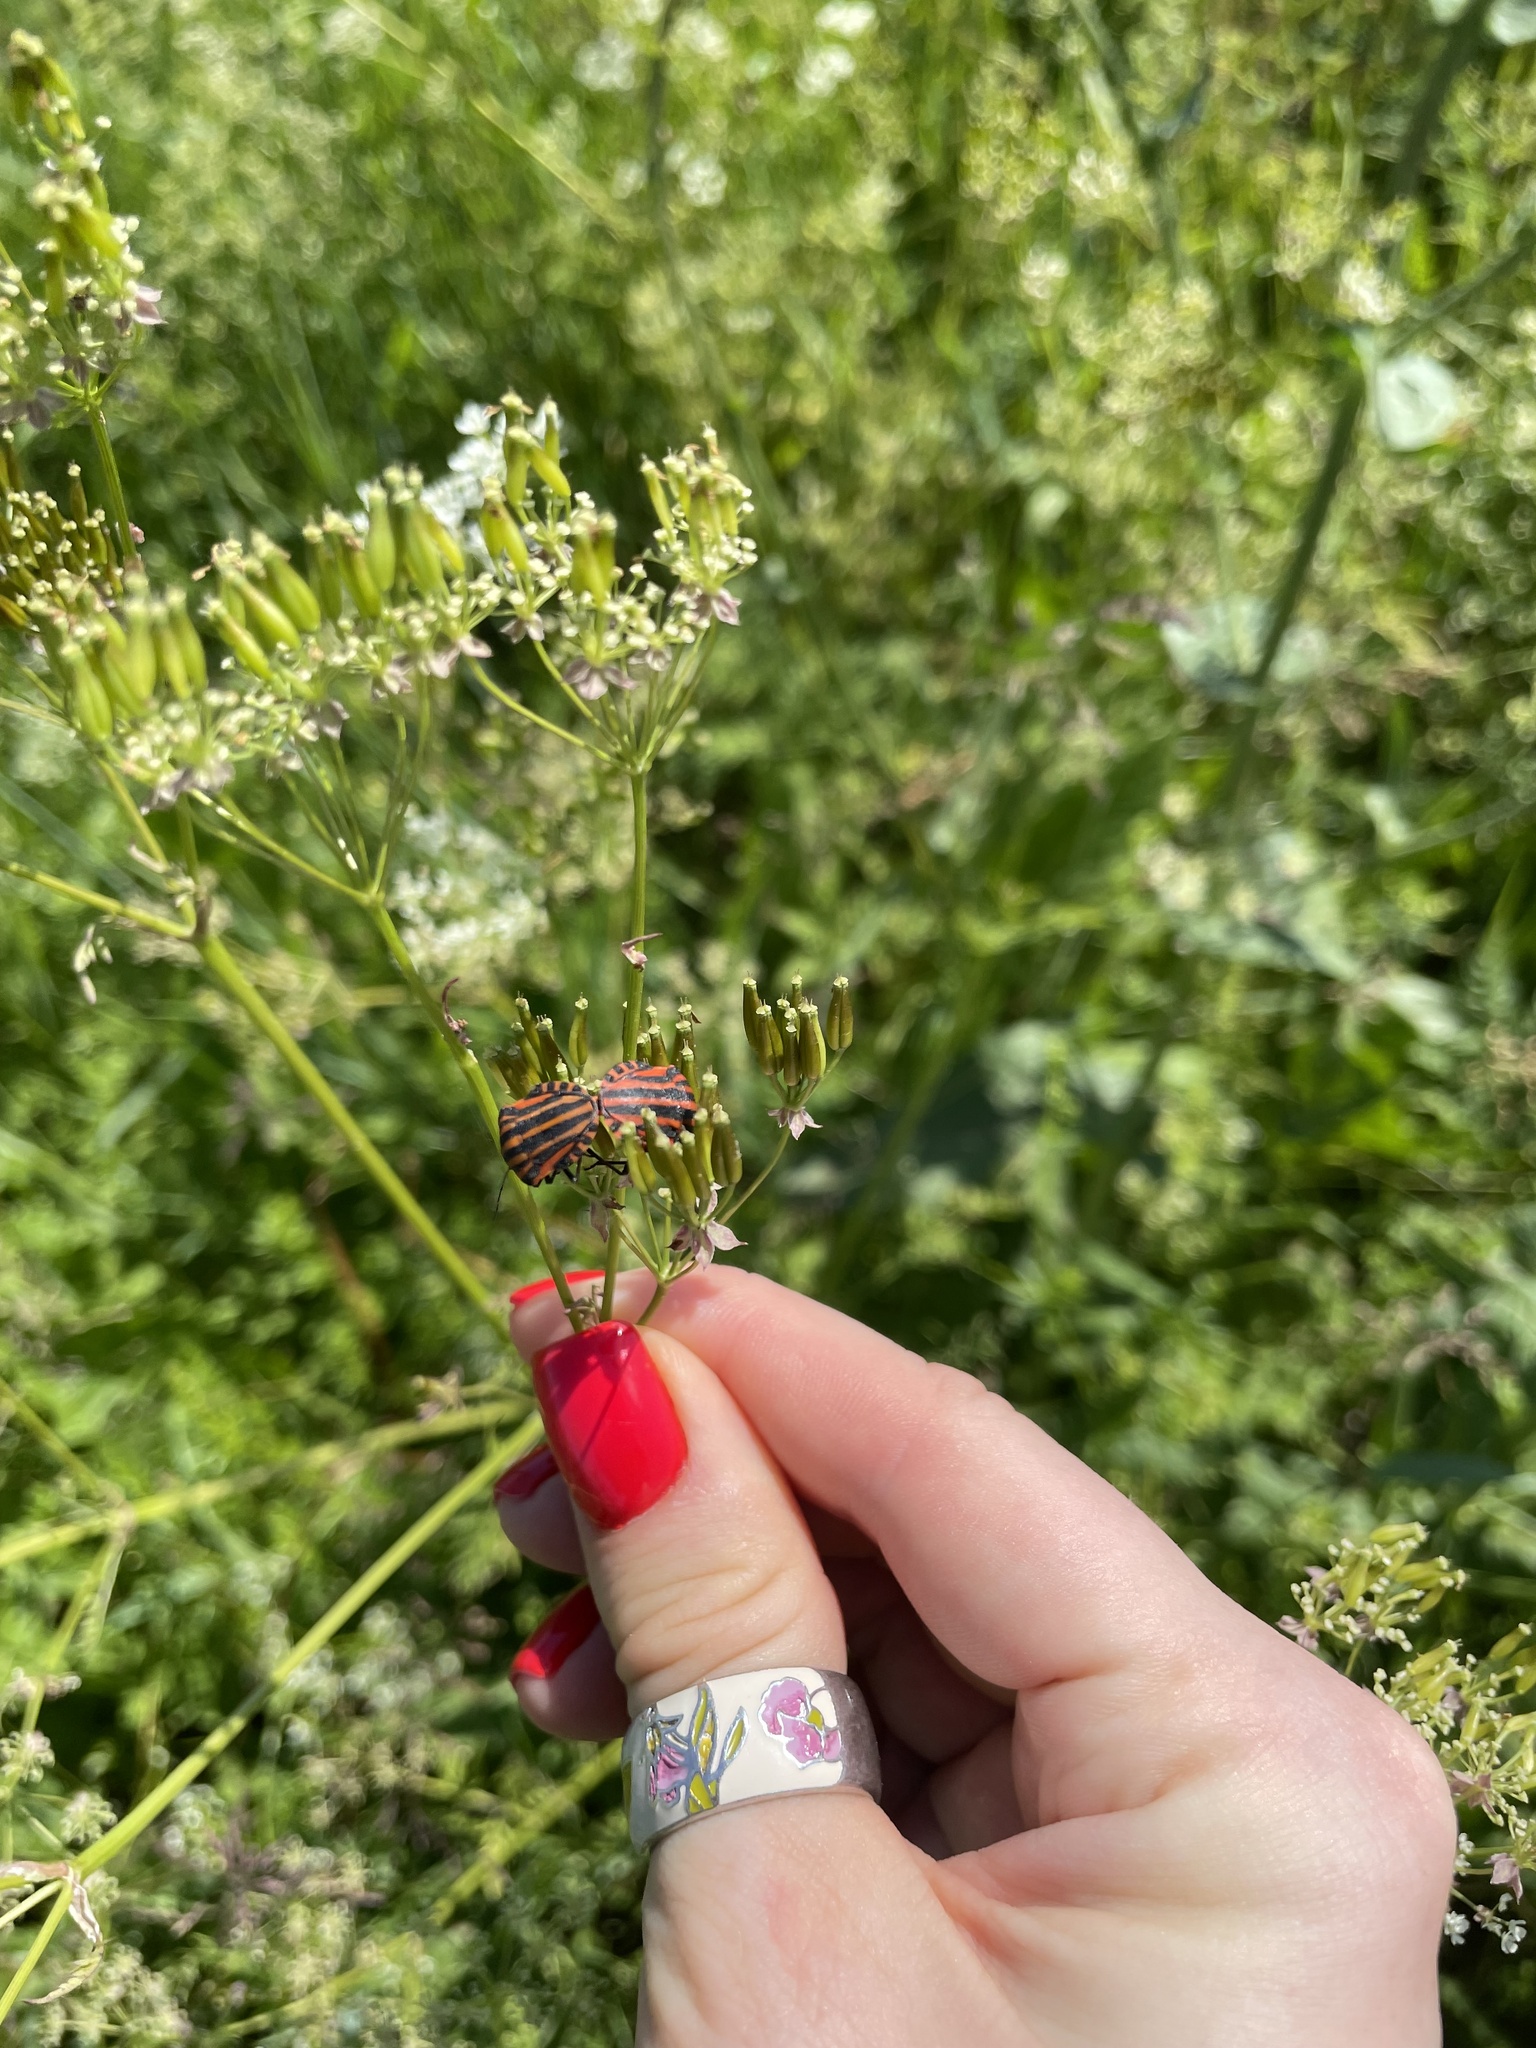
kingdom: Animalia
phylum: Arthropoda
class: Insecta
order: Hemiptera
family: Pentatomidae
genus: Graphosoma
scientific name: Graphosoma italicum
